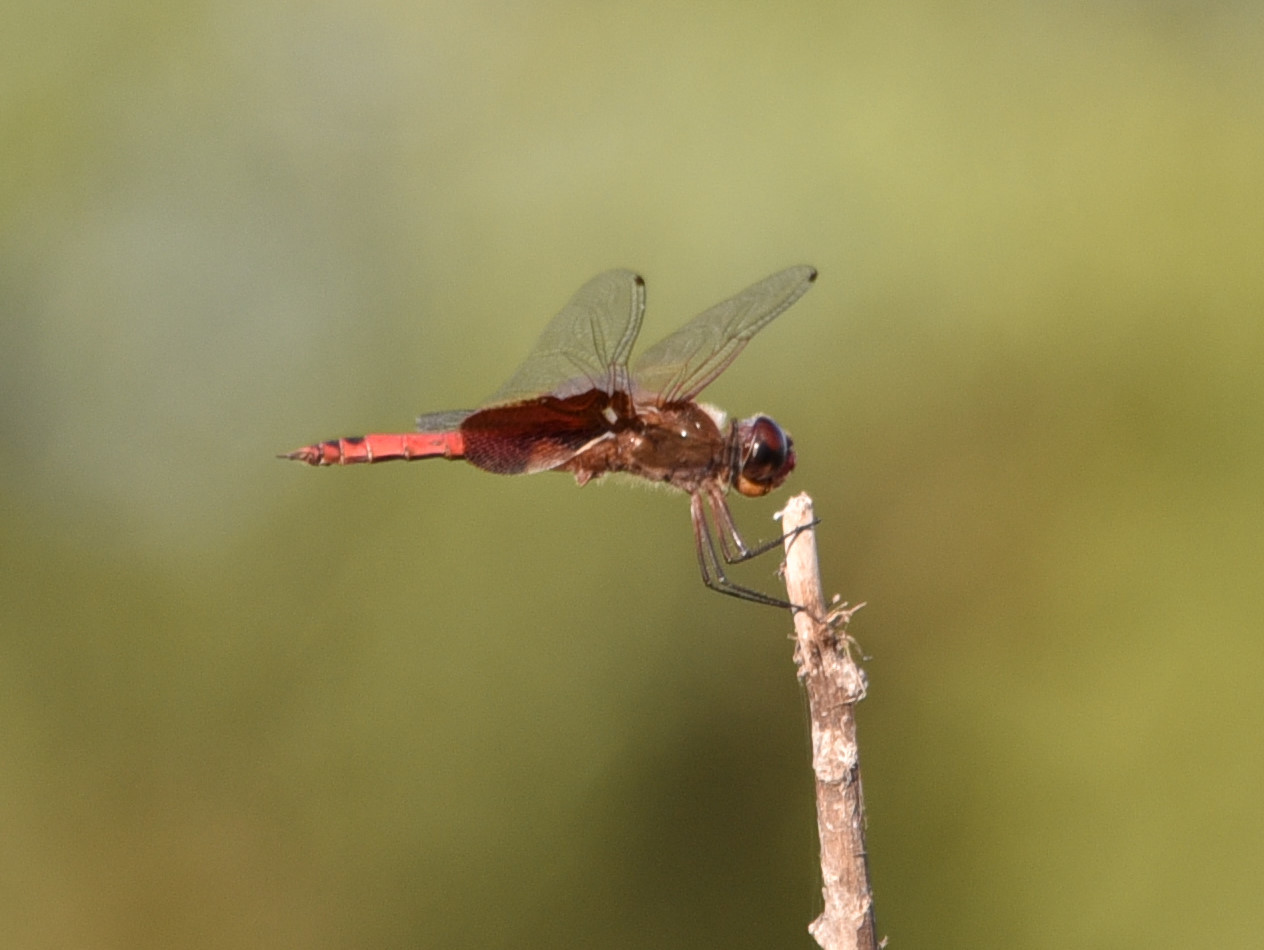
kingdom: Animalia
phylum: Arthropoda
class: Insecta
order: Odonata
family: Libellulidae
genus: Tramea
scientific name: Tramea onusta
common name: Red saddlebags
